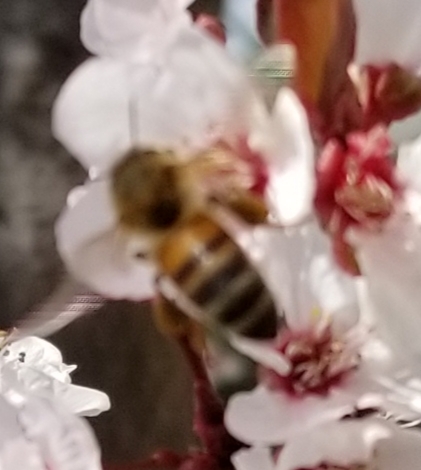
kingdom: Animalia
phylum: Arthropoda
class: Insecta
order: Hymenoptera
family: Apidae
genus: Apis
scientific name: Apis mellifera
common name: Honey bee
